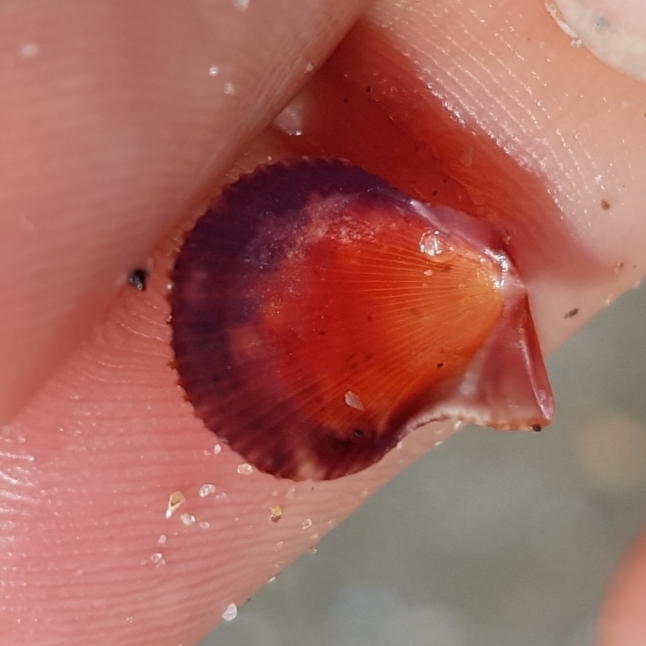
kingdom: Animalia
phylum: Mollusca
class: Bivalvia
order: Pectinida
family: Pectinidae
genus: Mimachlamys
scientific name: Mimachlamys varia
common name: Variegated scallop
